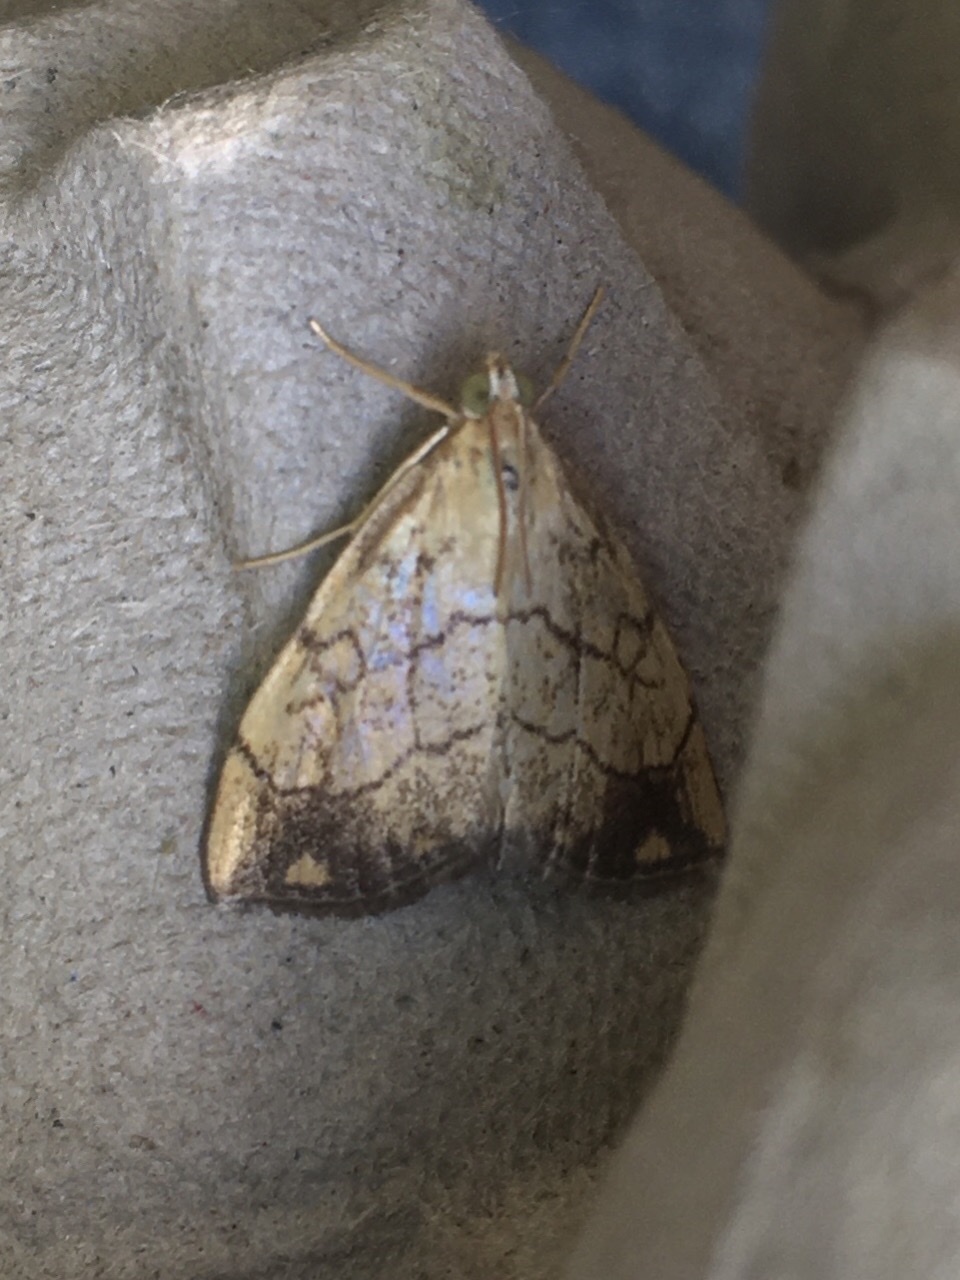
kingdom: Animalia
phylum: Arthropoda
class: Insecta
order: Lepidoptera
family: Crambidae
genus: Evergestis
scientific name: Evergestis pallidata
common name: Chequered pearl
